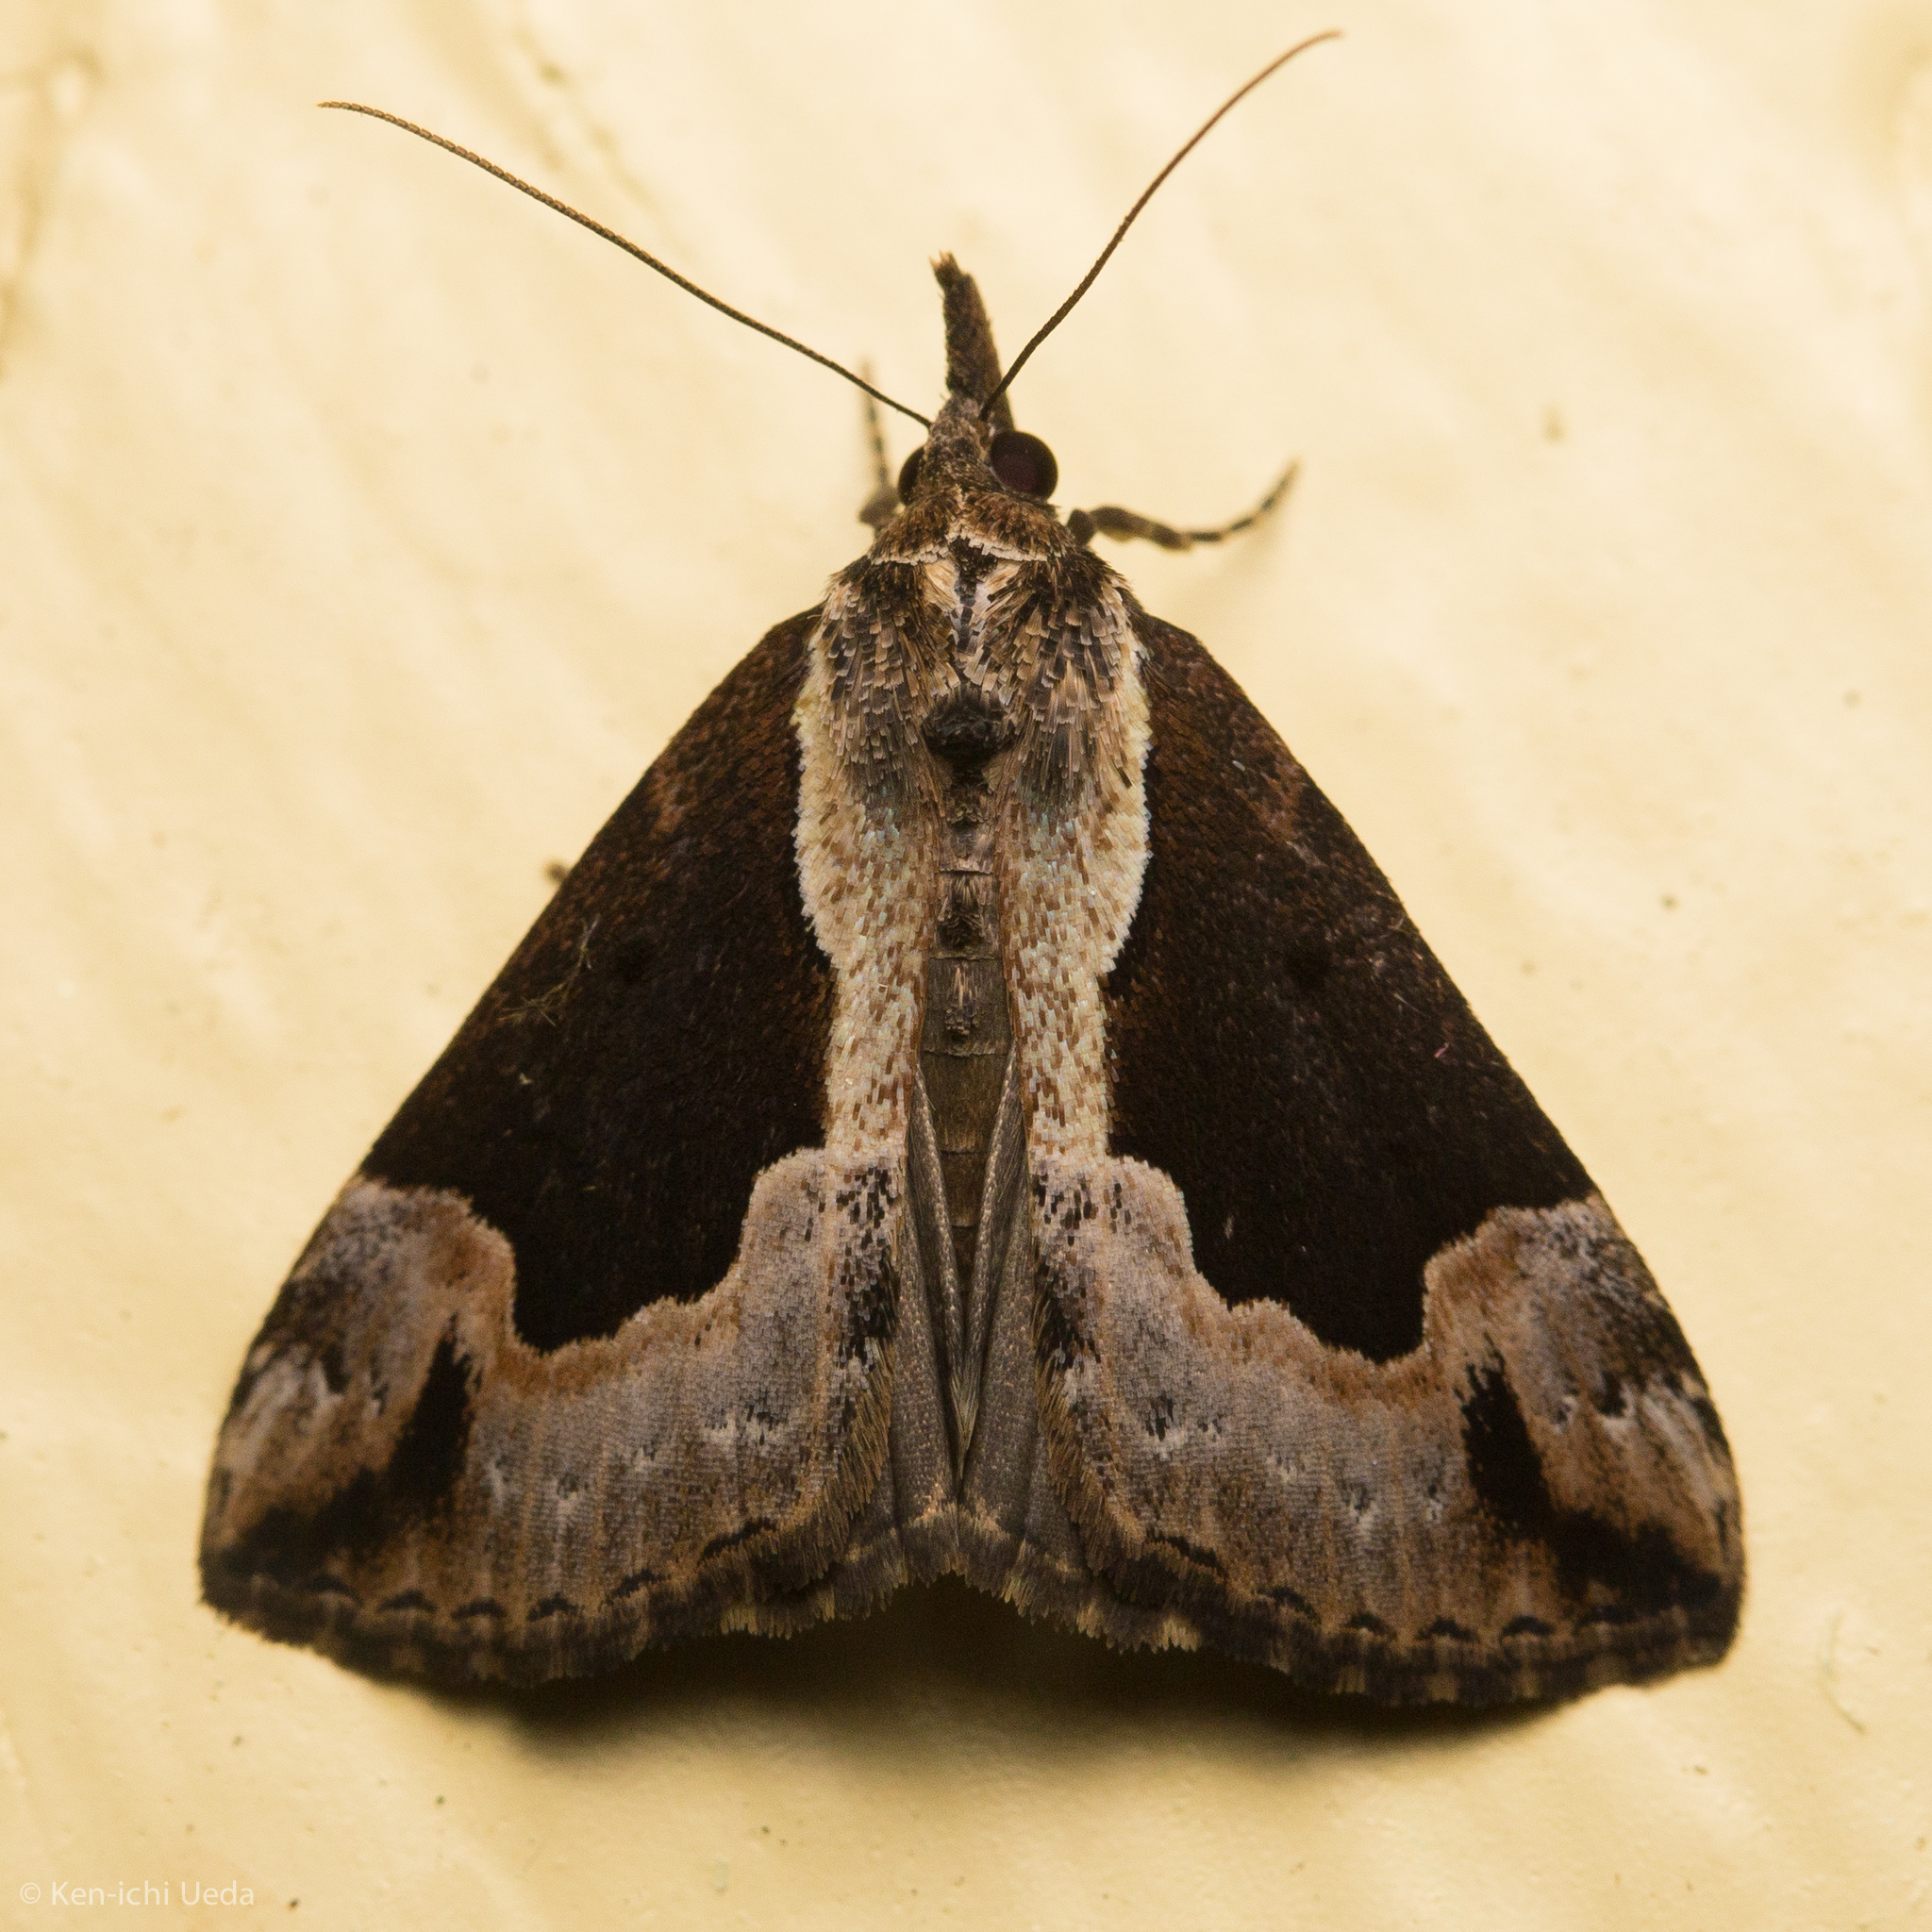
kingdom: Animalia
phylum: Arthropoda
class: Insecta
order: Lepidoptera
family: Erebidae
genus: Hypena
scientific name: Hypena baltimoralis
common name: Baltimore snout
